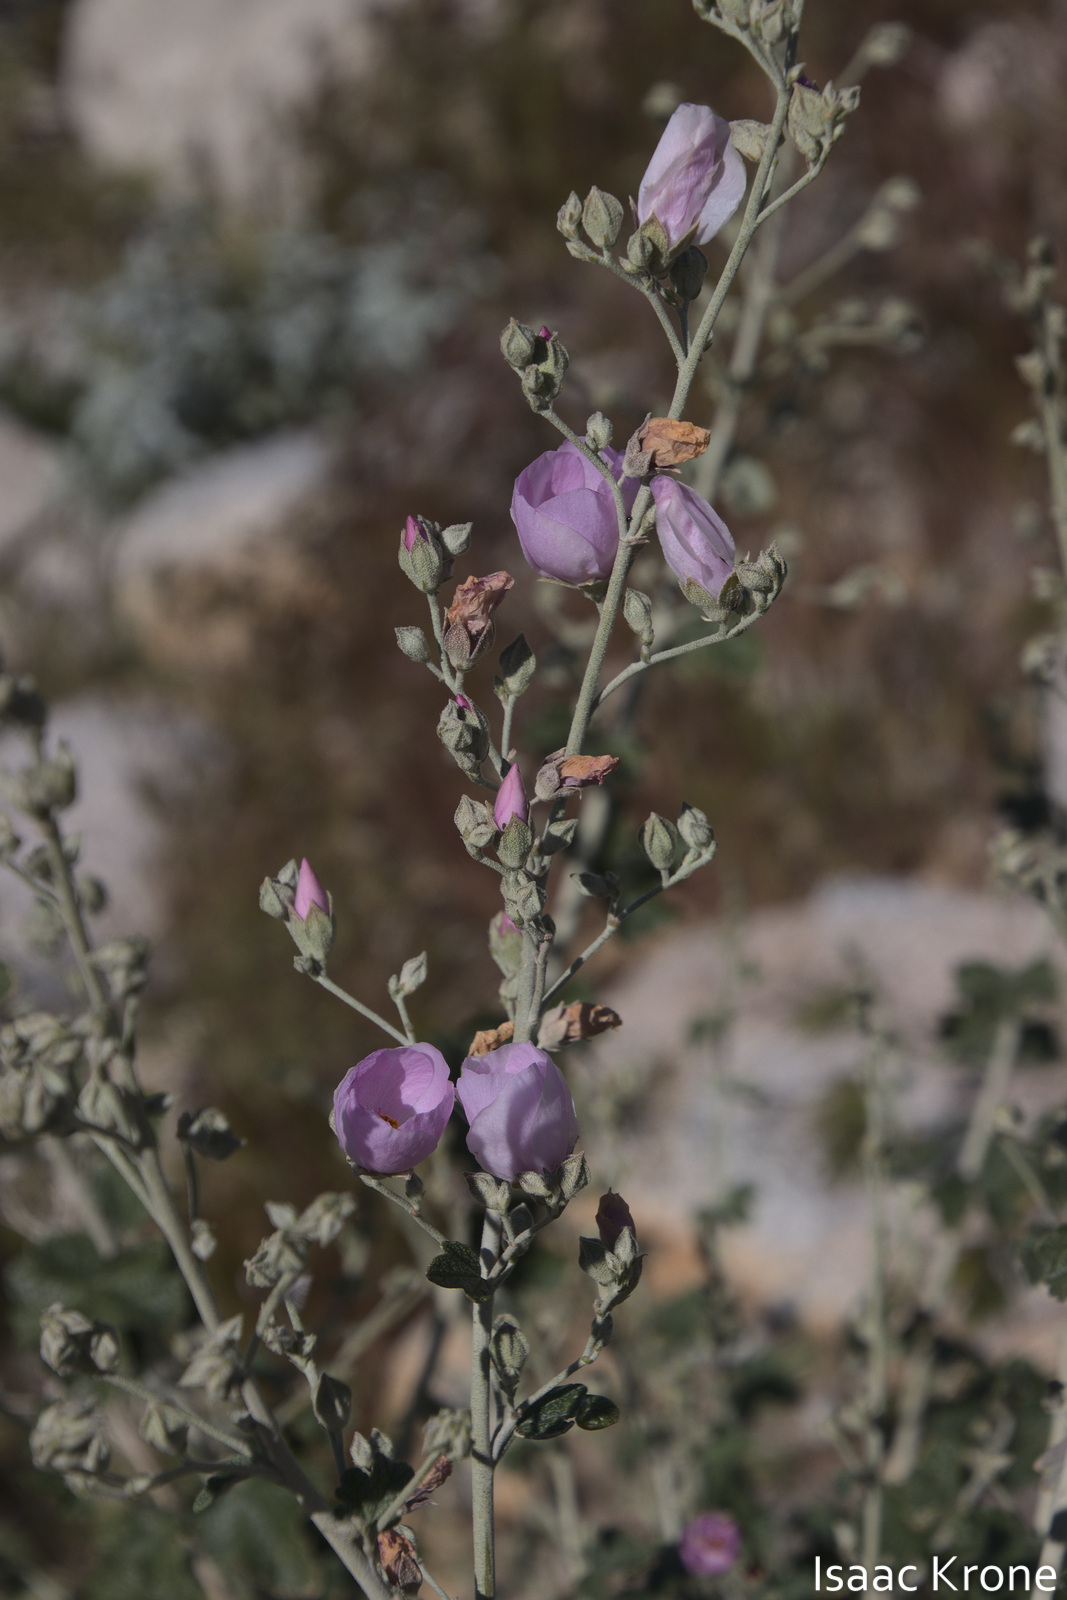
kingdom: Plantae
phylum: Tracheophyta
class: Magnoliopsida
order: Malvales
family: Malvaceae
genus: Malacothamnus
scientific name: Malacothamnus fasciculatus
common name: Sant cruz island bush-mallow
